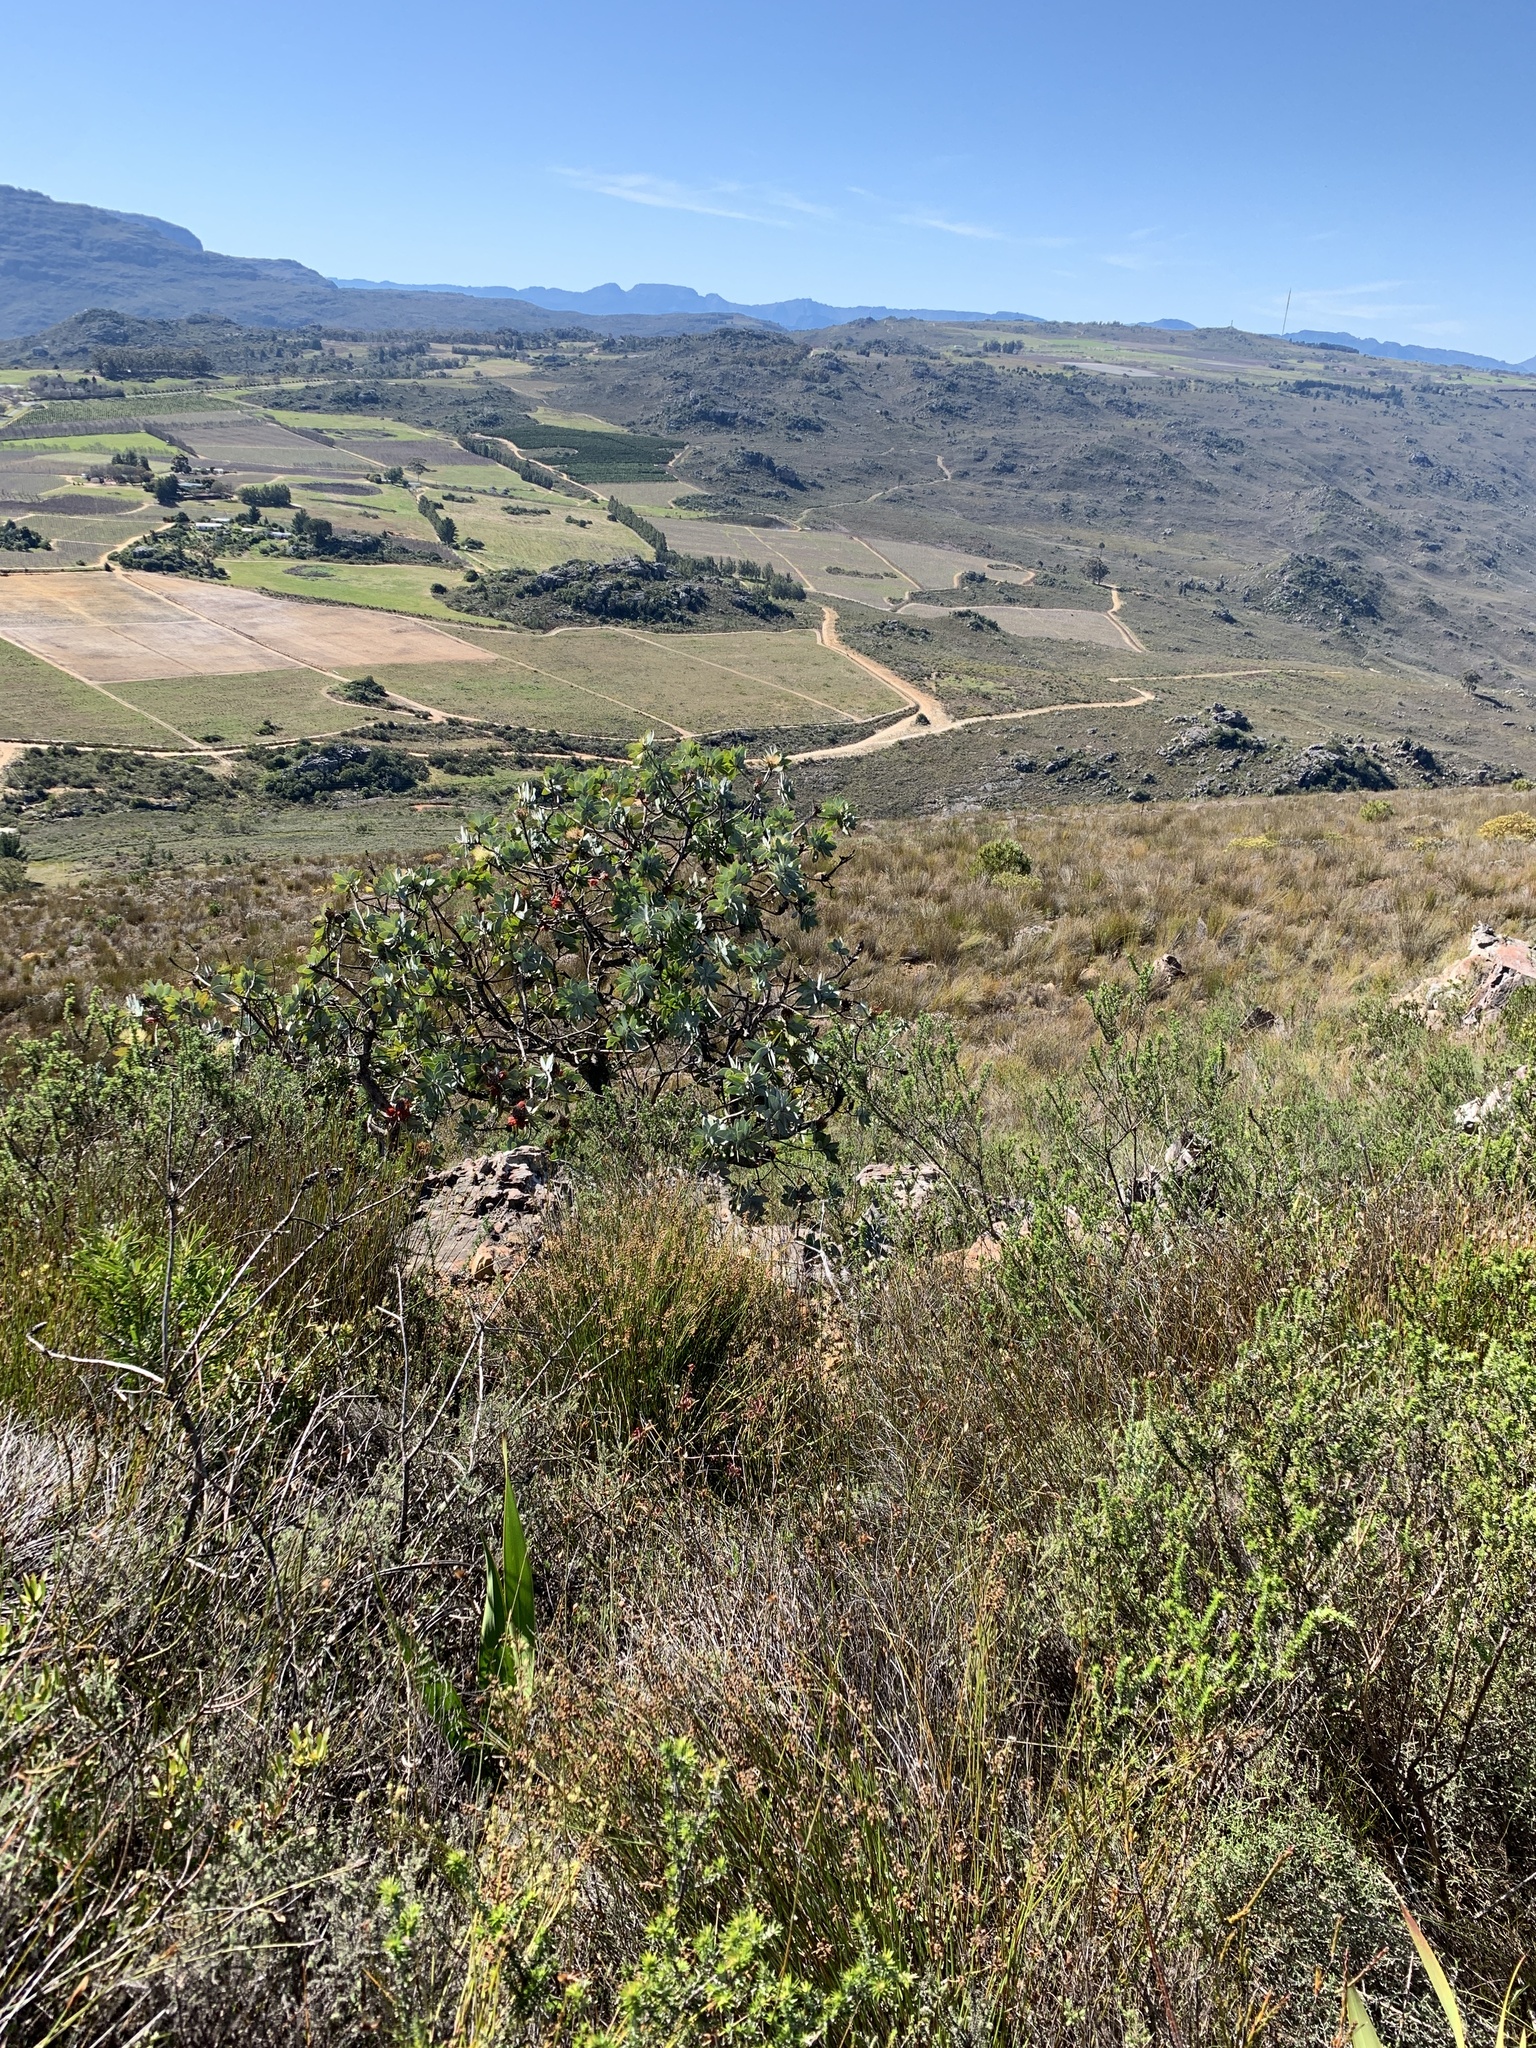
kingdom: Plantae
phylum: Tracheophyta
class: Magnoliopsida
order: Proteales
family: Proteaceae
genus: Protea
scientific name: Protea nitida
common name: Tree protea
